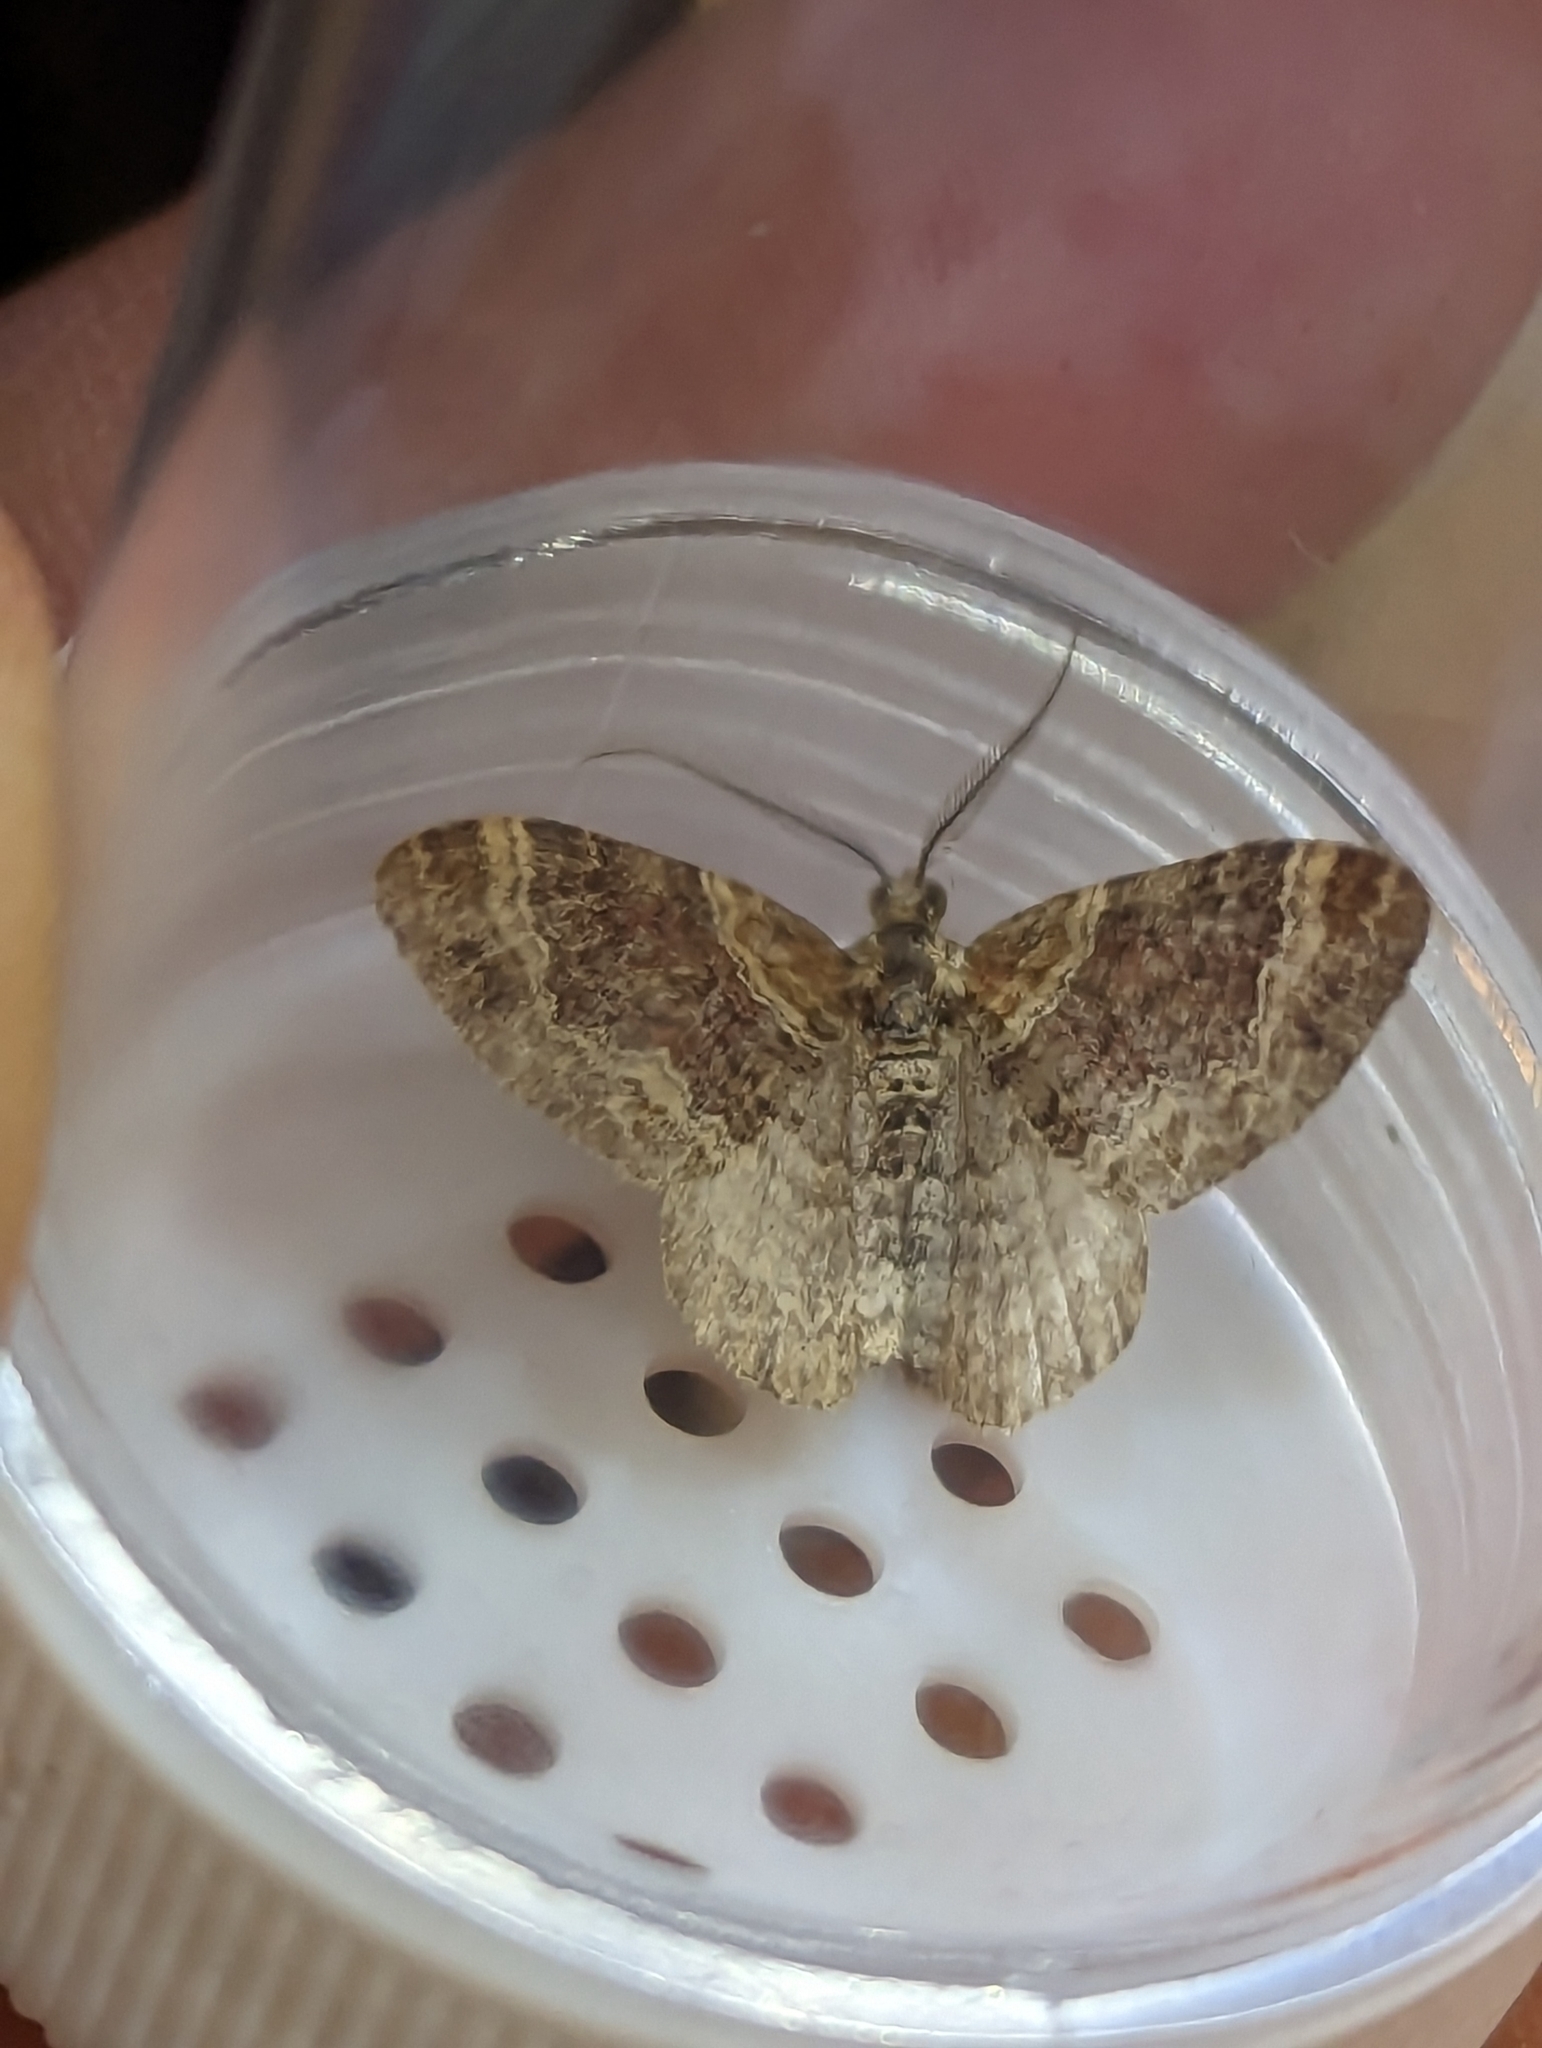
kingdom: Animalia
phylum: Arthropoda
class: Insecta
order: Lepidoptera
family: Geometridae
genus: Xanthorhoe
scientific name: Xanthorhoe spadicearia
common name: Red twin-spot carpet
